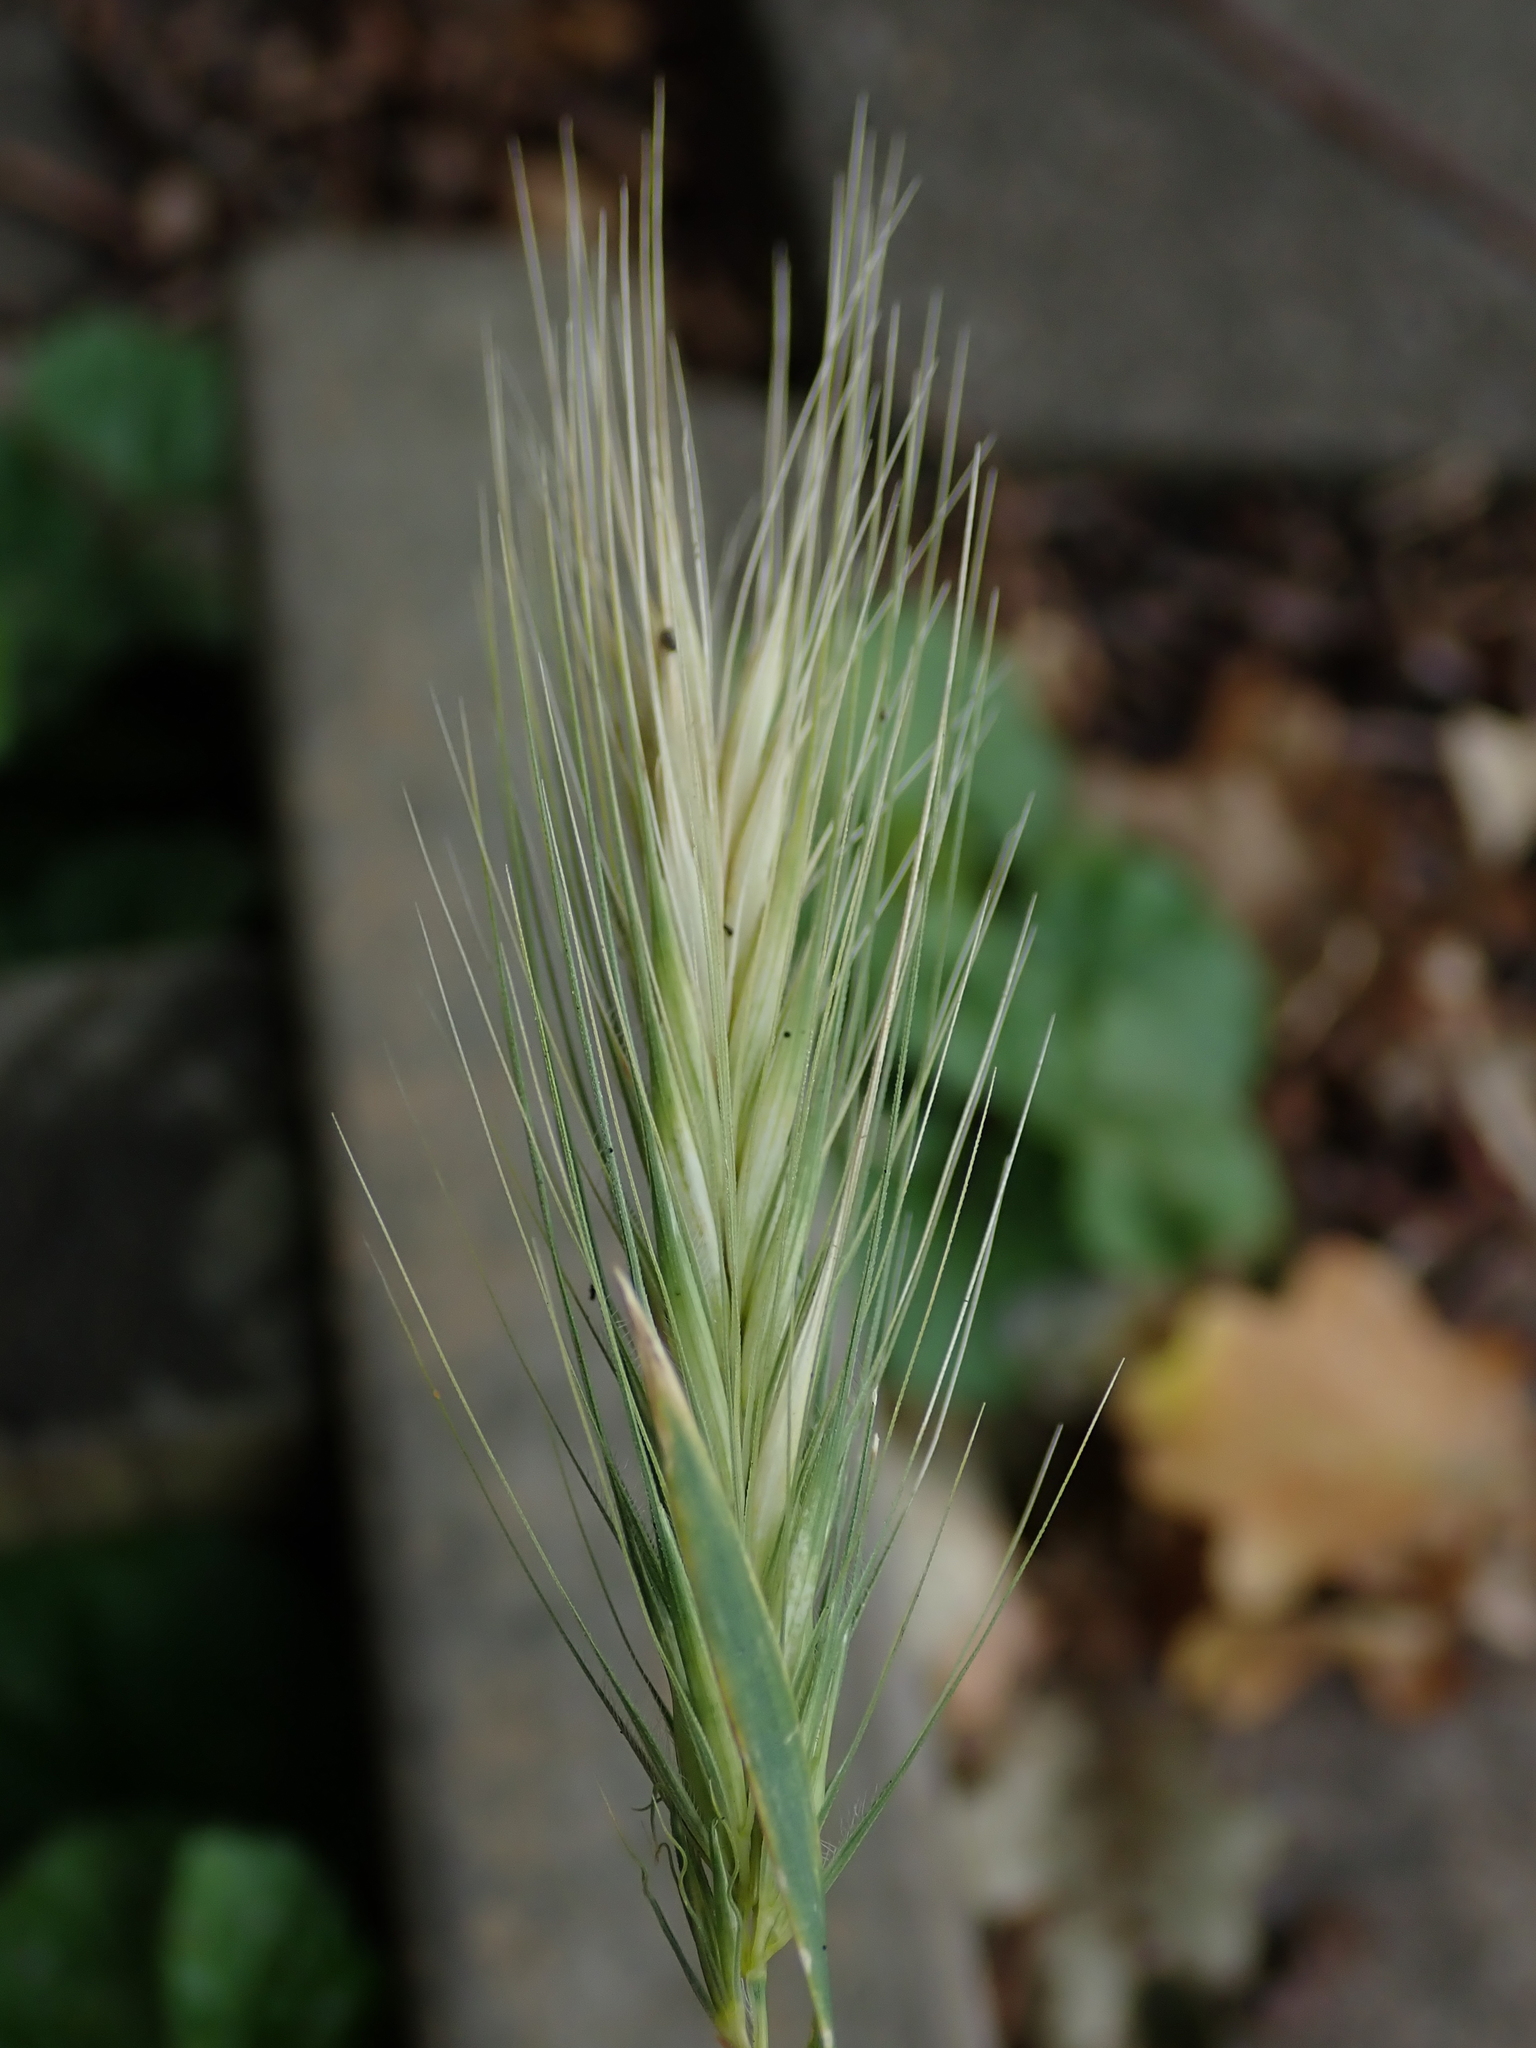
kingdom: Plantae
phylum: Tracheophyta
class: Liliopsida
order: Poales
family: Poaceae
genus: Hordeum
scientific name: Hordeum murinum
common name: Wall barley
